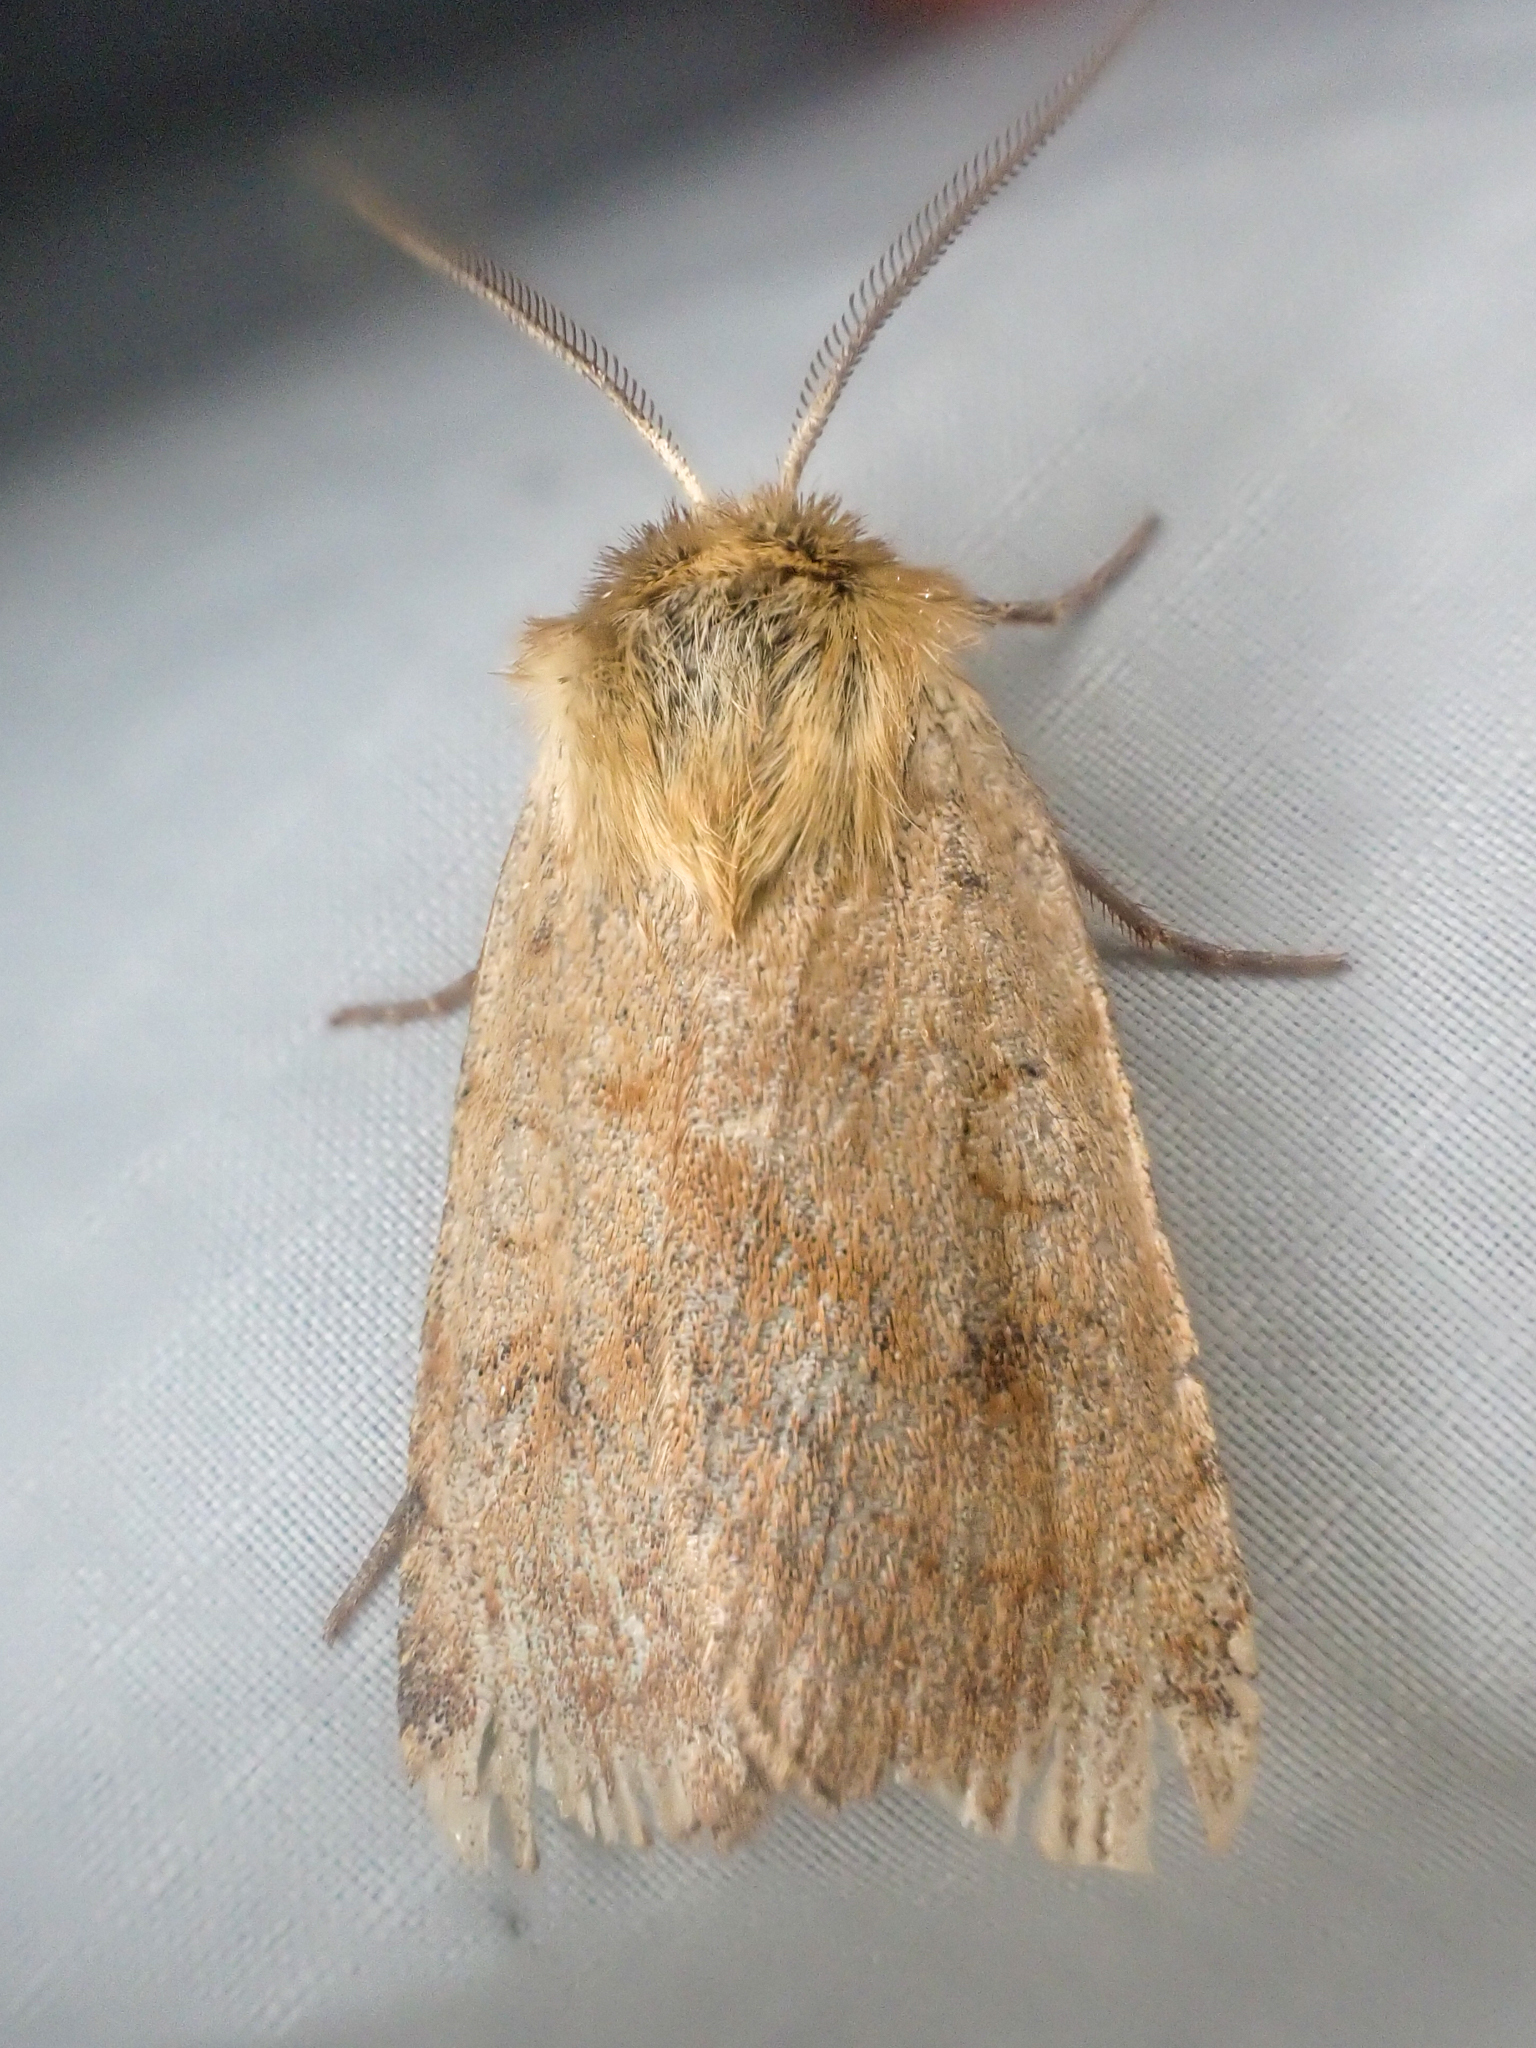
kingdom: Animalia
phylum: Arthropoda
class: Insecta
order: Lepidoptera
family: Noctuidae
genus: Paradiarsia
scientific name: Paradiarsia littoralis
